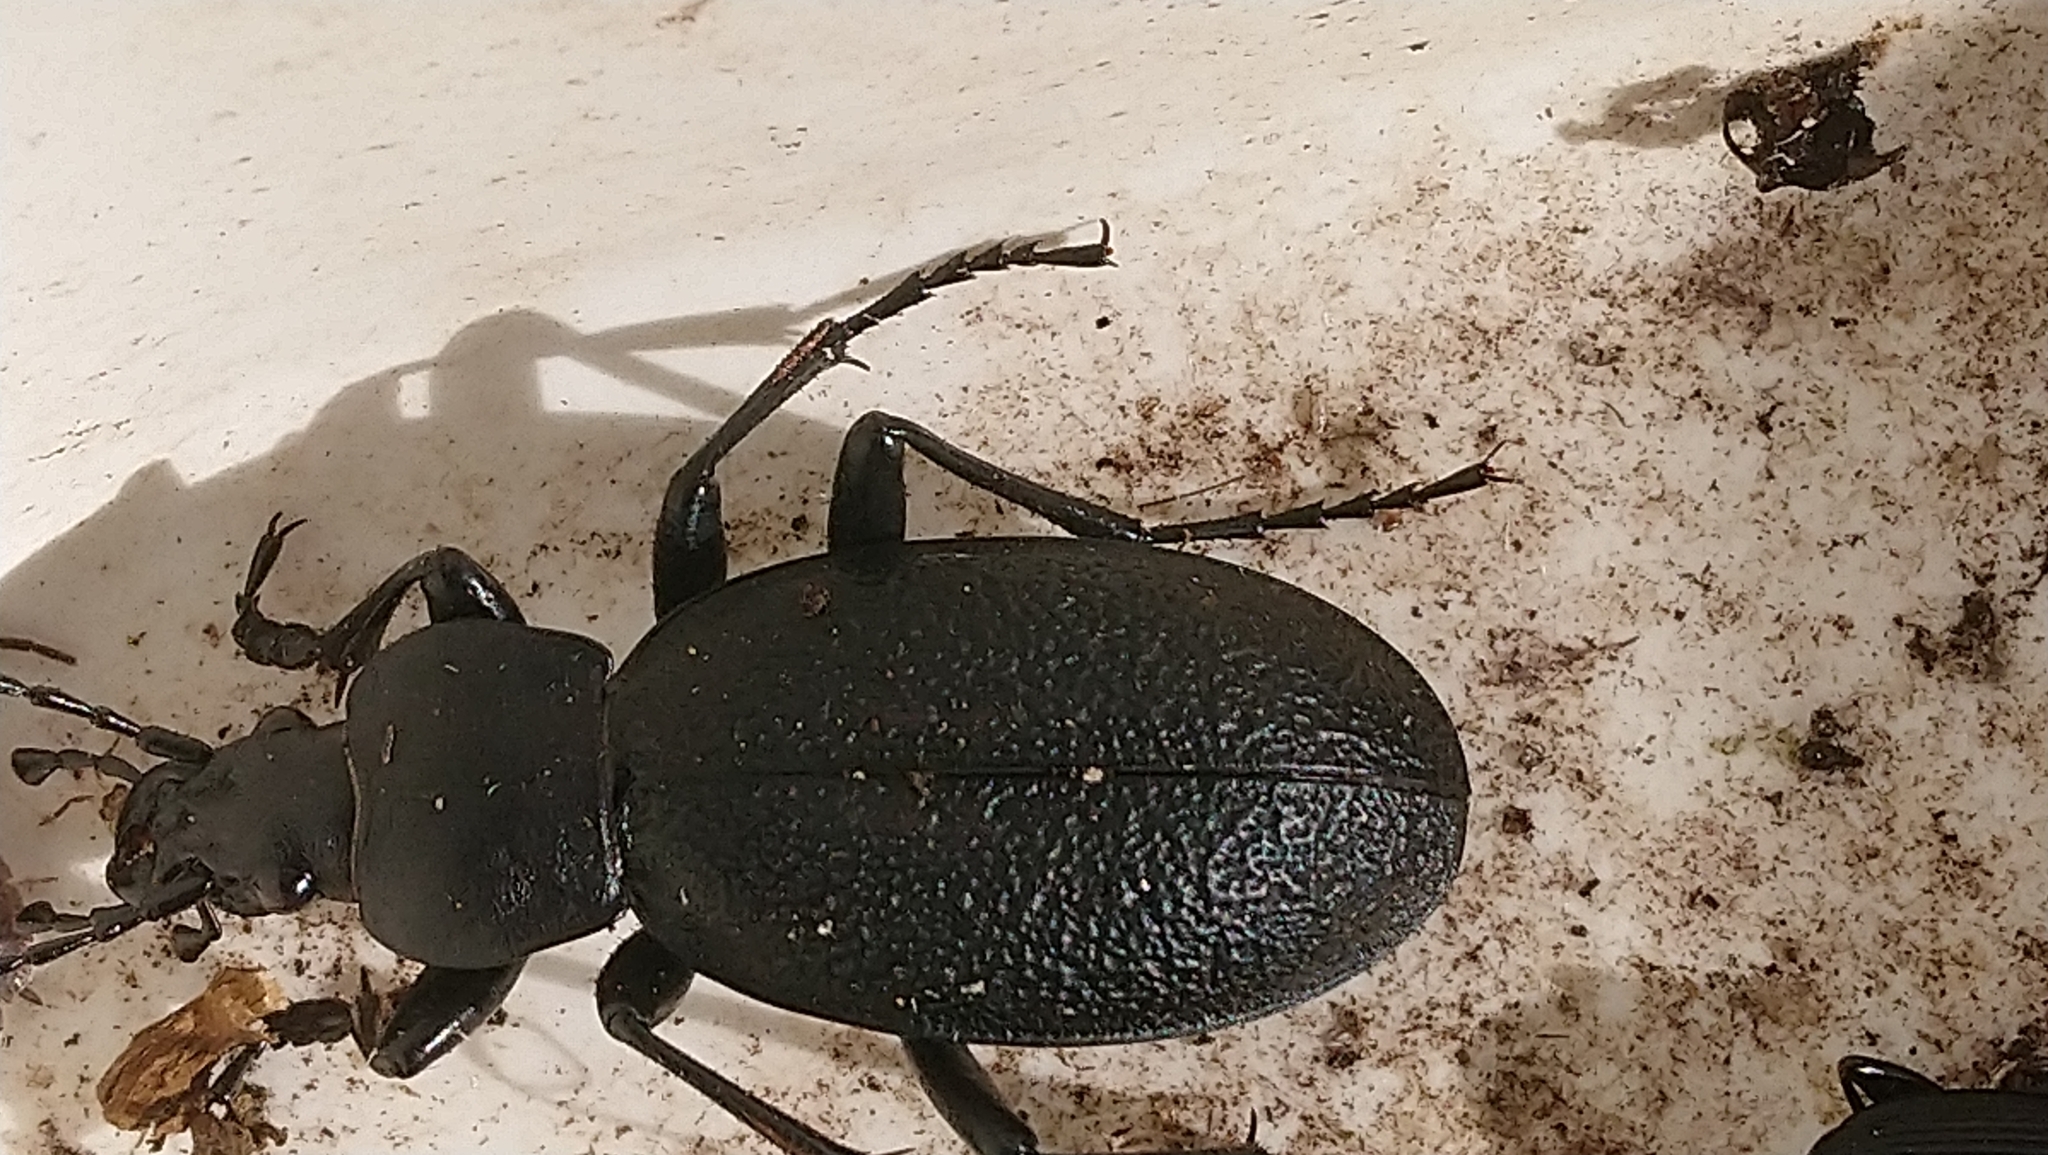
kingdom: Animalia
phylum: Arthropoda
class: Insecta
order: Coleoptera
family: Carabidae
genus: Carabus
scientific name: Carabus coriaceus
